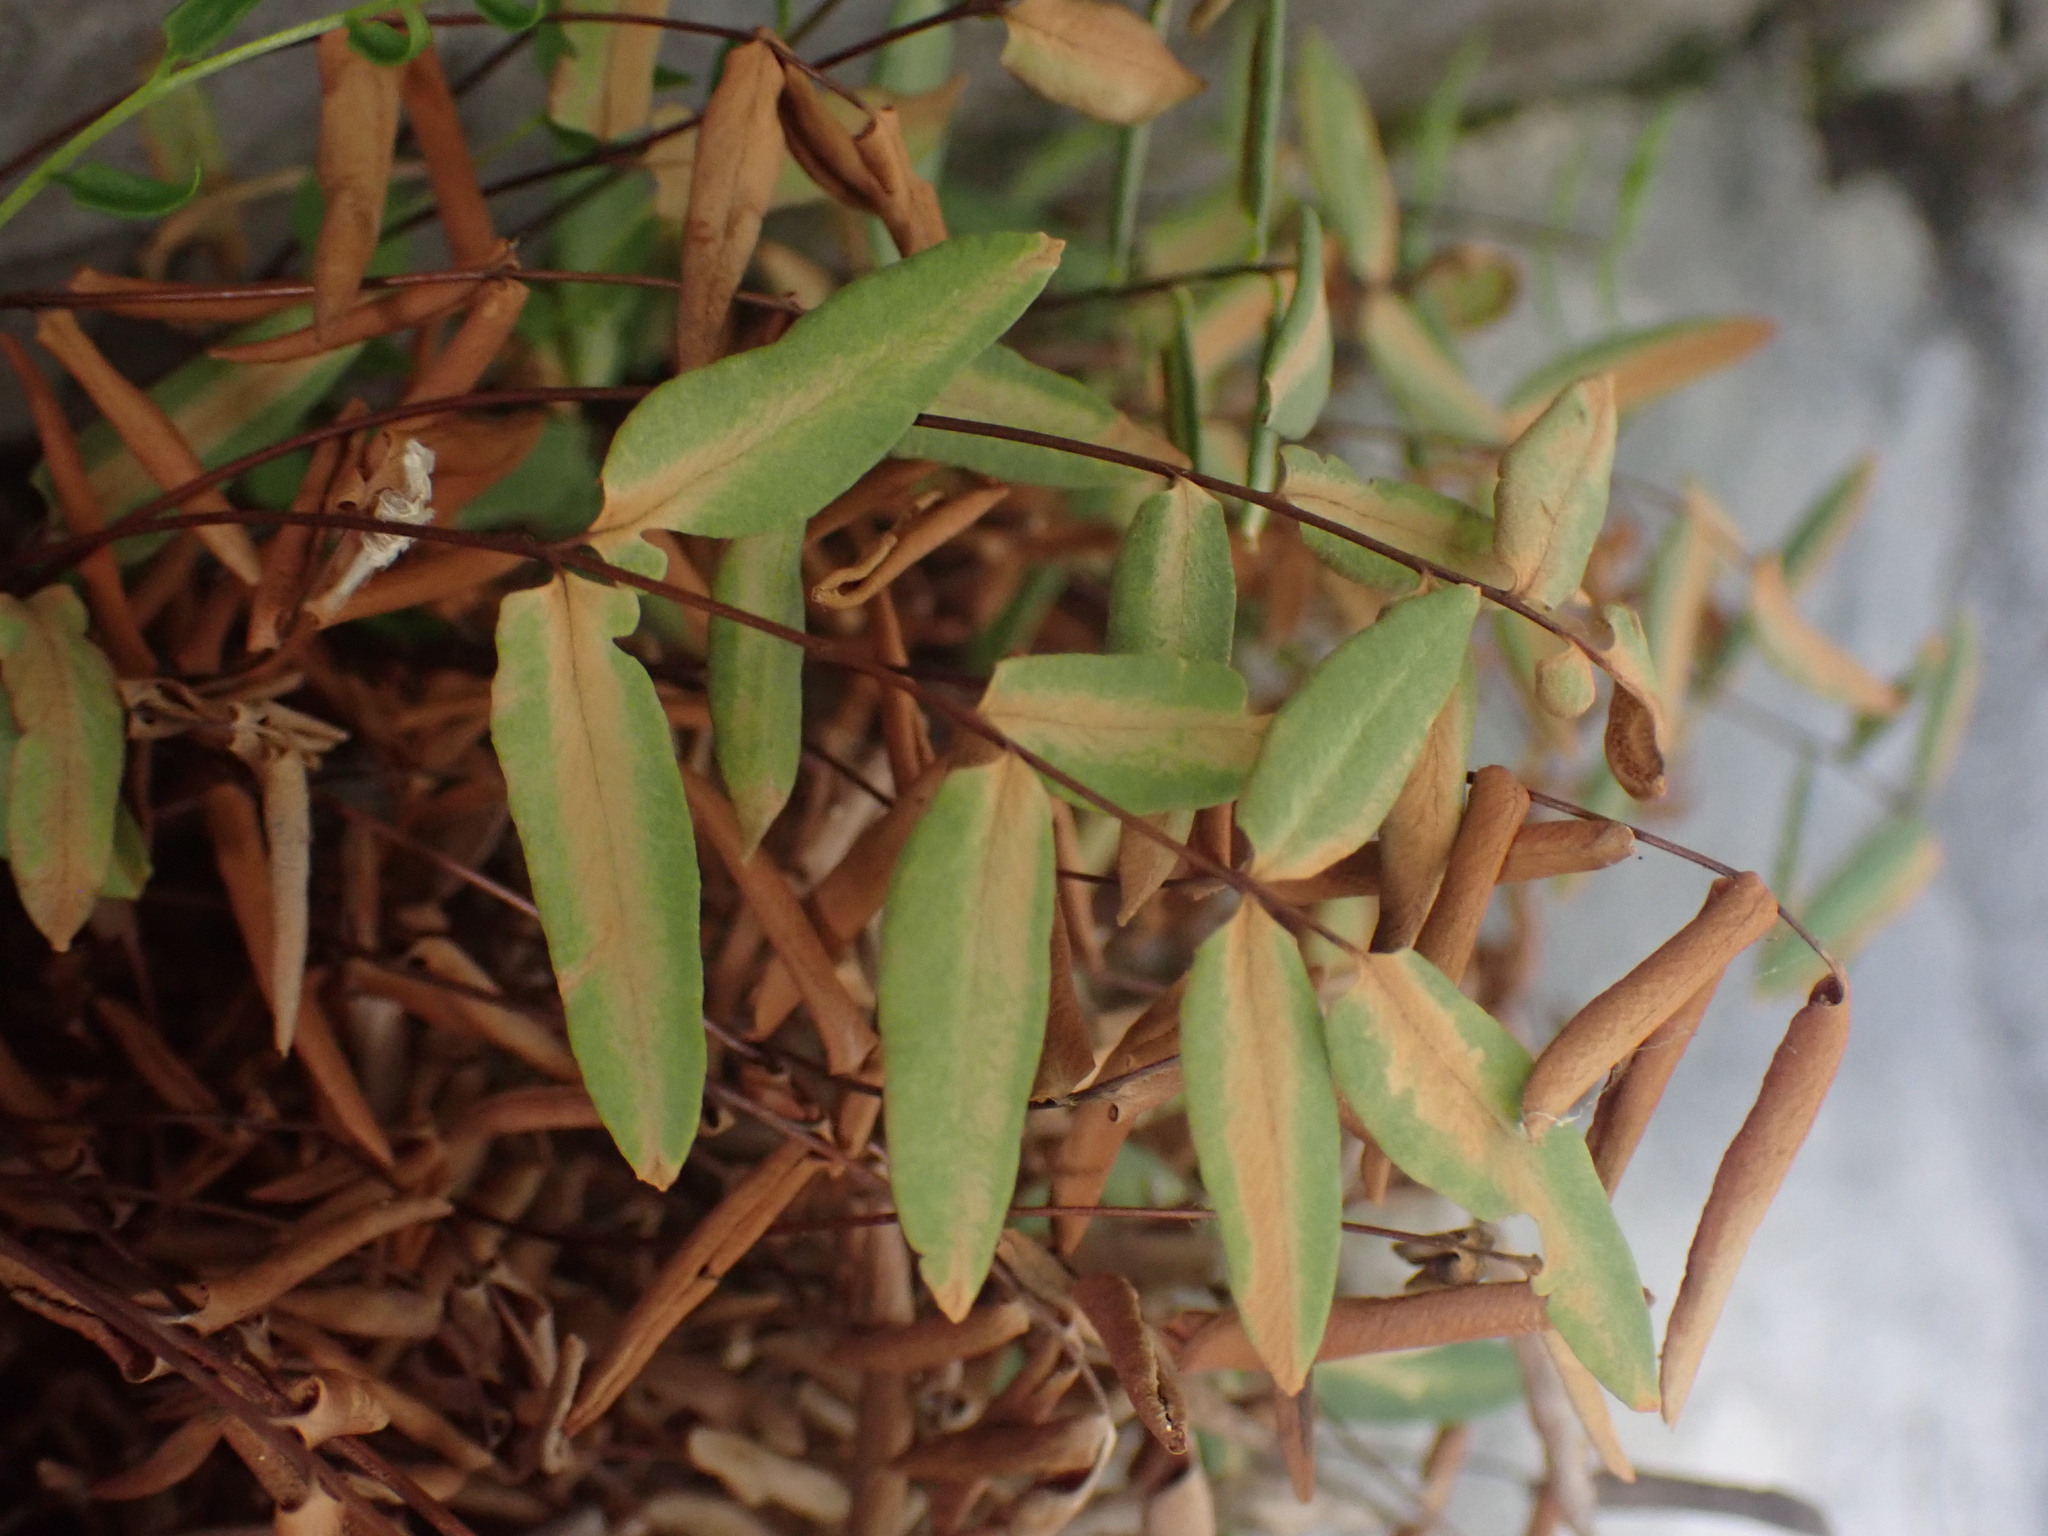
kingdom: Plantae
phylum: Tracheophyta
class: Polypodiopsida
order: Polypodiales
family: Pteridaceae
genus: Pellaea
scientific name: Pellaea glabella
